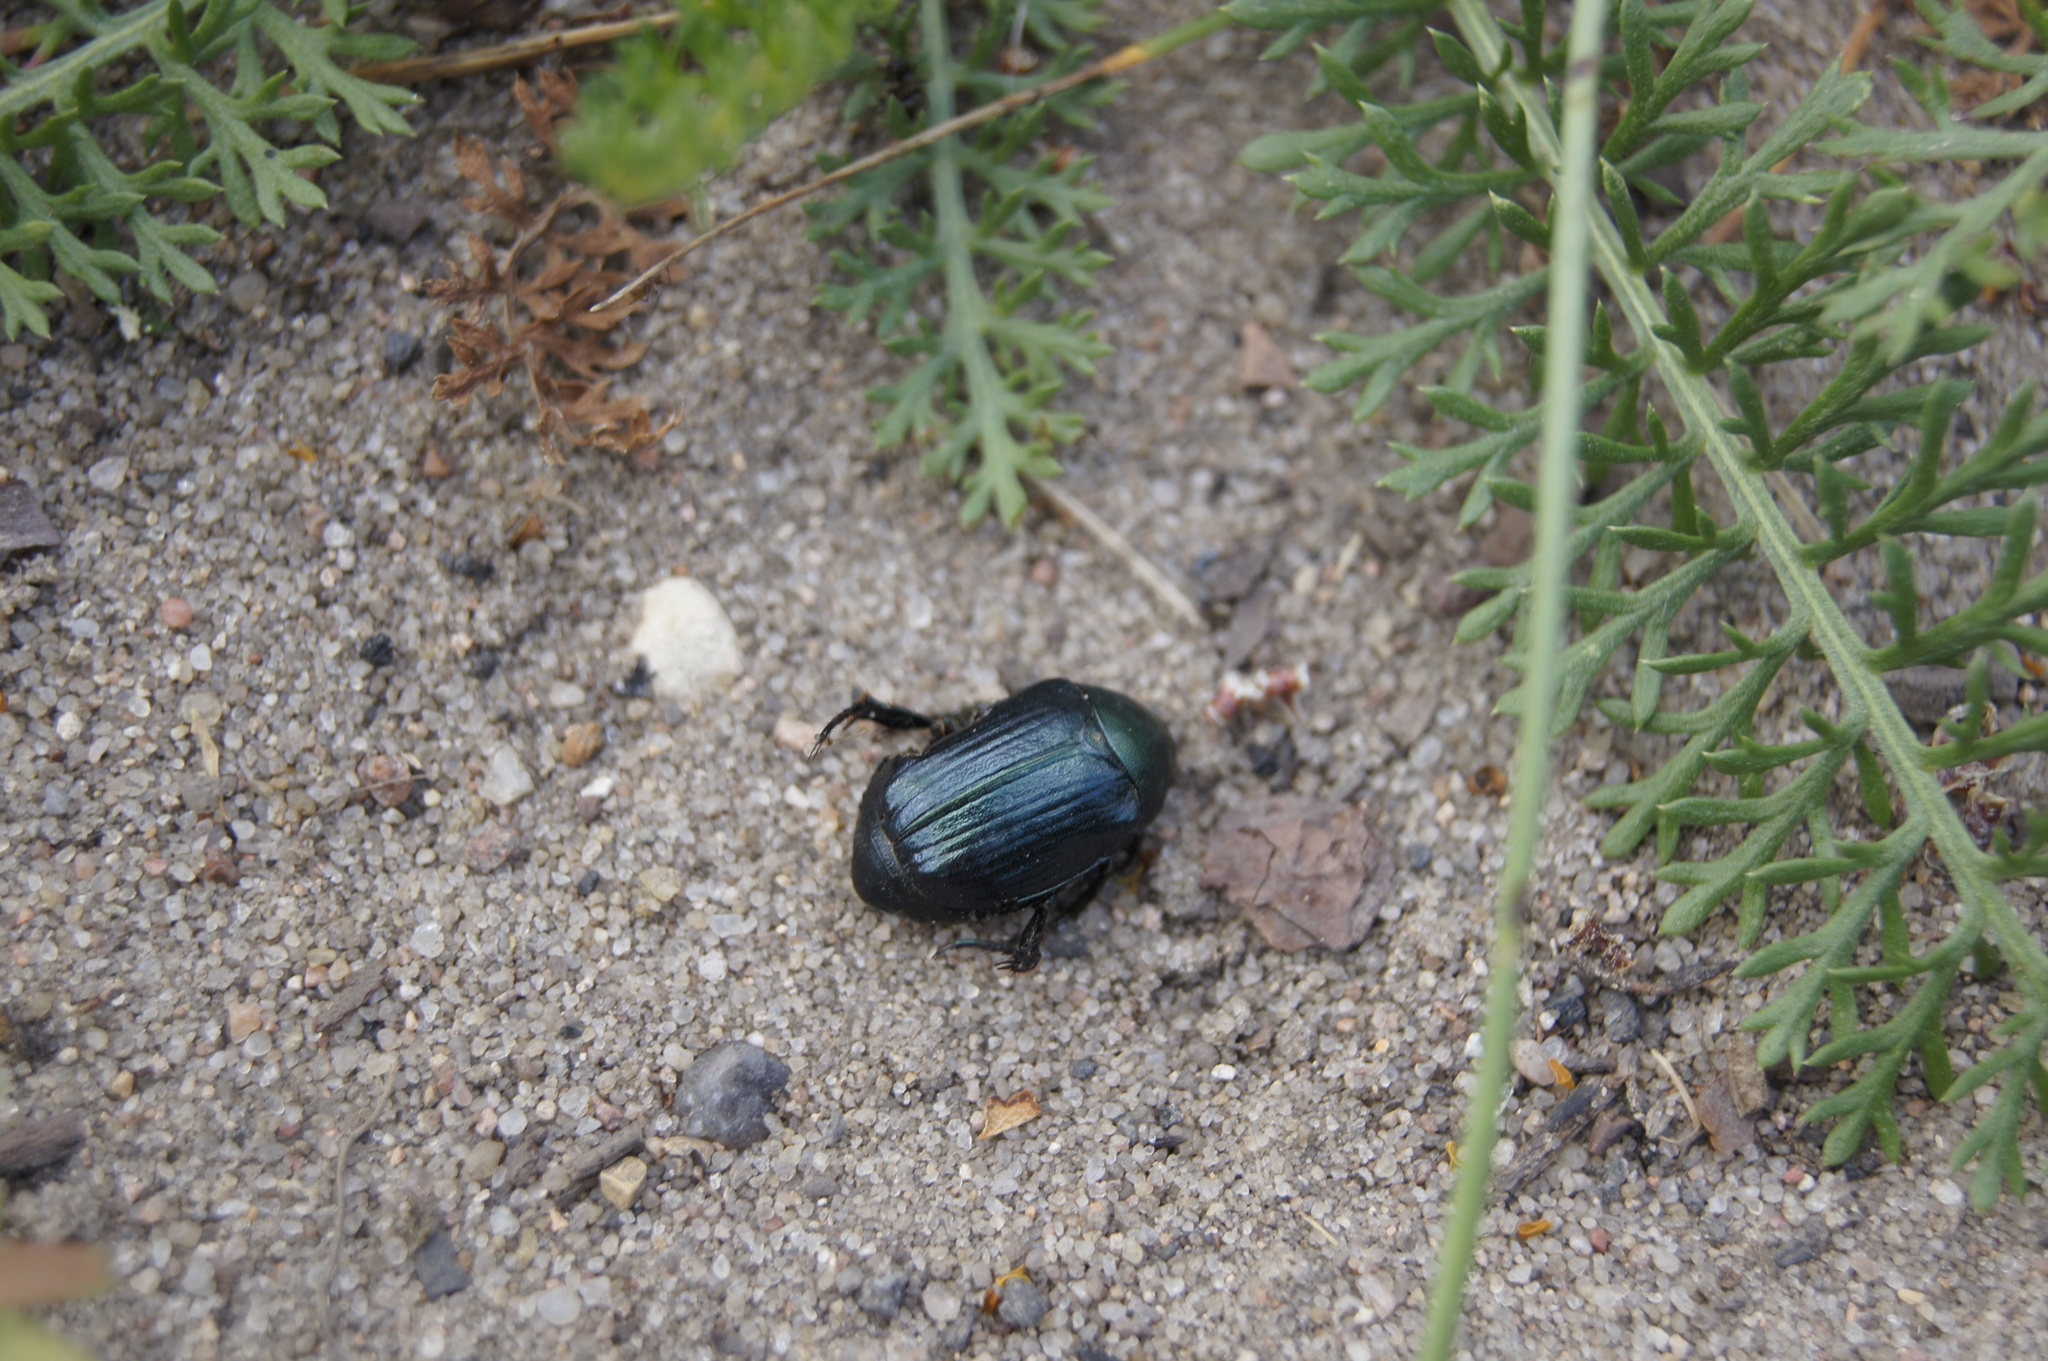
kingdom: Animalia
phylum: Arthropoda
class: Insecta
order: Coleoptera
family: Scarabaeidae
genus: Anomala
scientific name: Anomala dubia
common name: Dune chafer
